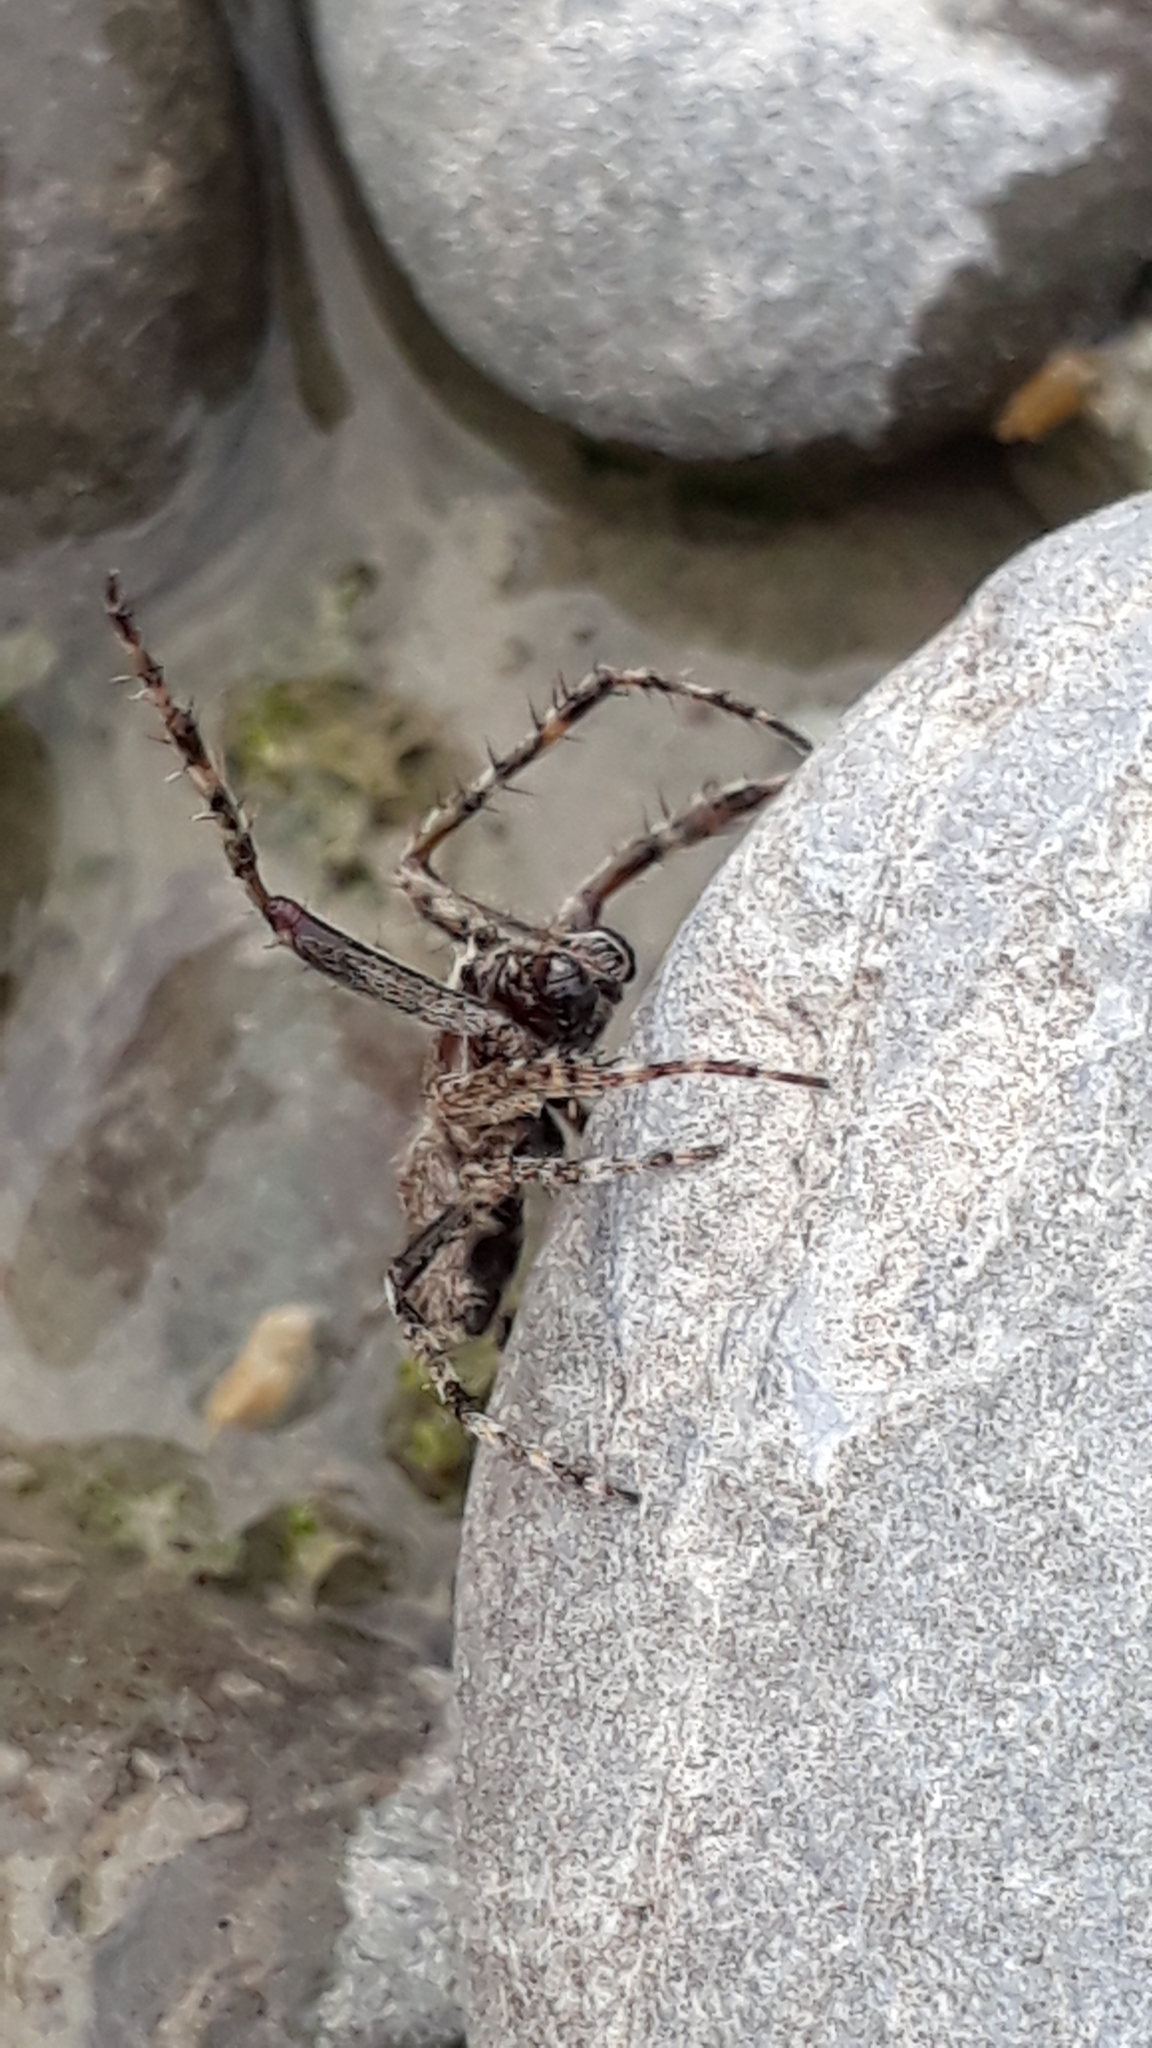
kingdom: Animalia
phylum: Arthropoda
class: Arachnida
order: Araneae
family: Araneidae
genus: Eriophora
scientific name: Eriophora pustulosa
